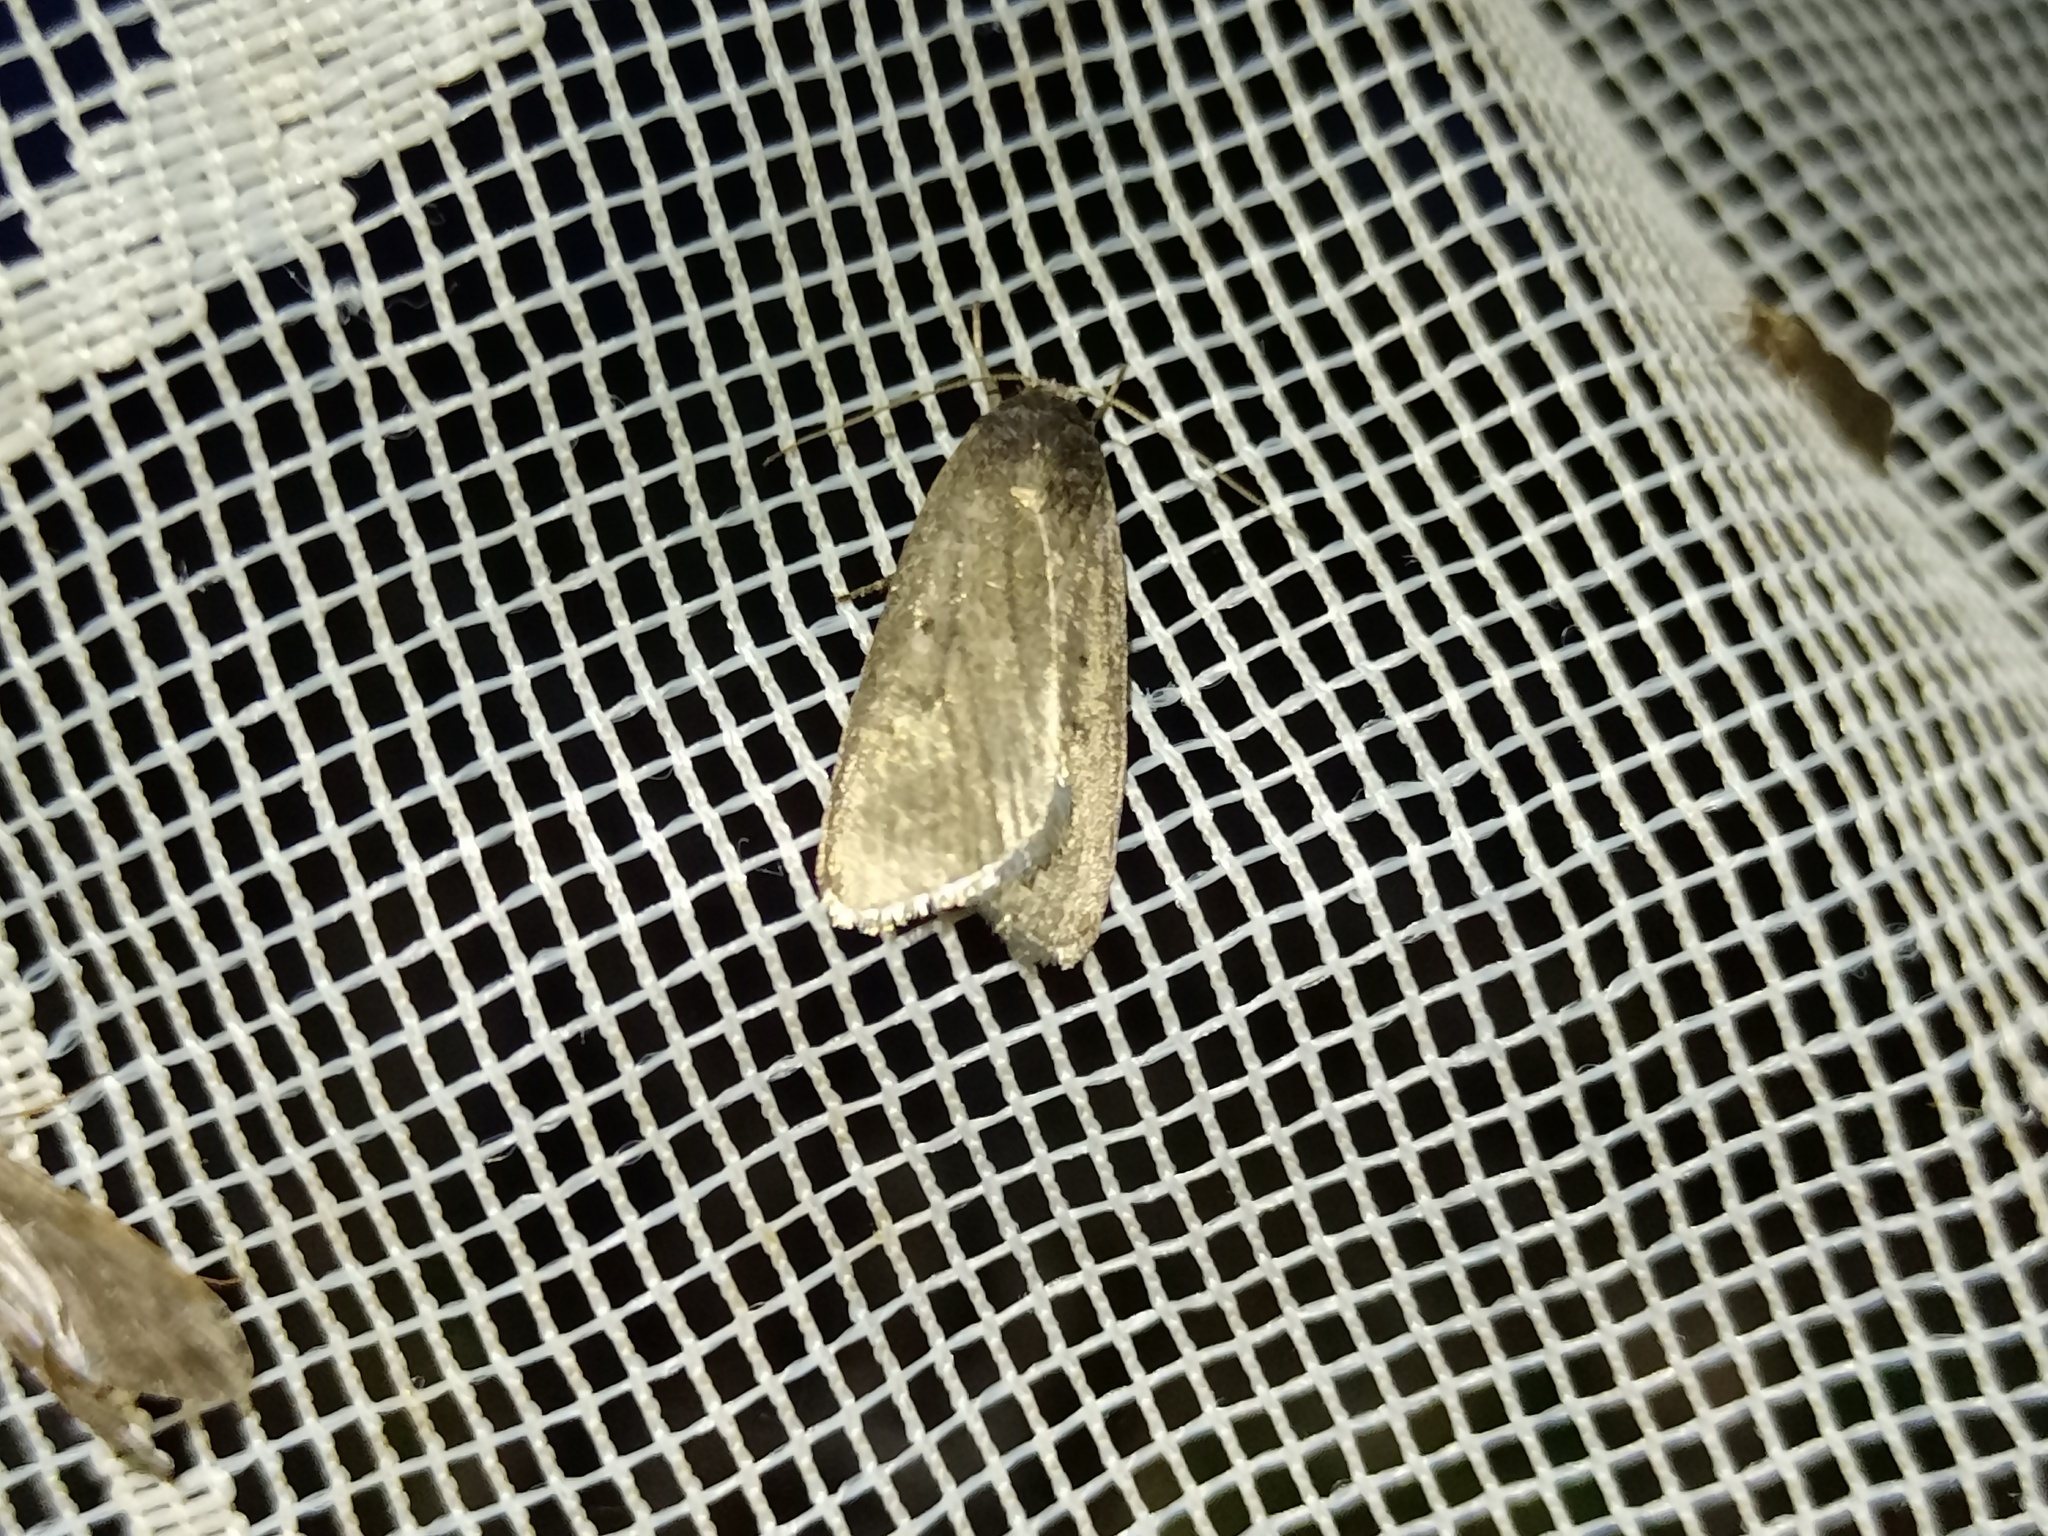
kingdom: Animalia
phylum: Arthropoda
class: Insecta
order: Lepidoptera
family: Noctuidae
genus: Athetis
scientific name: Athetis lepigone
